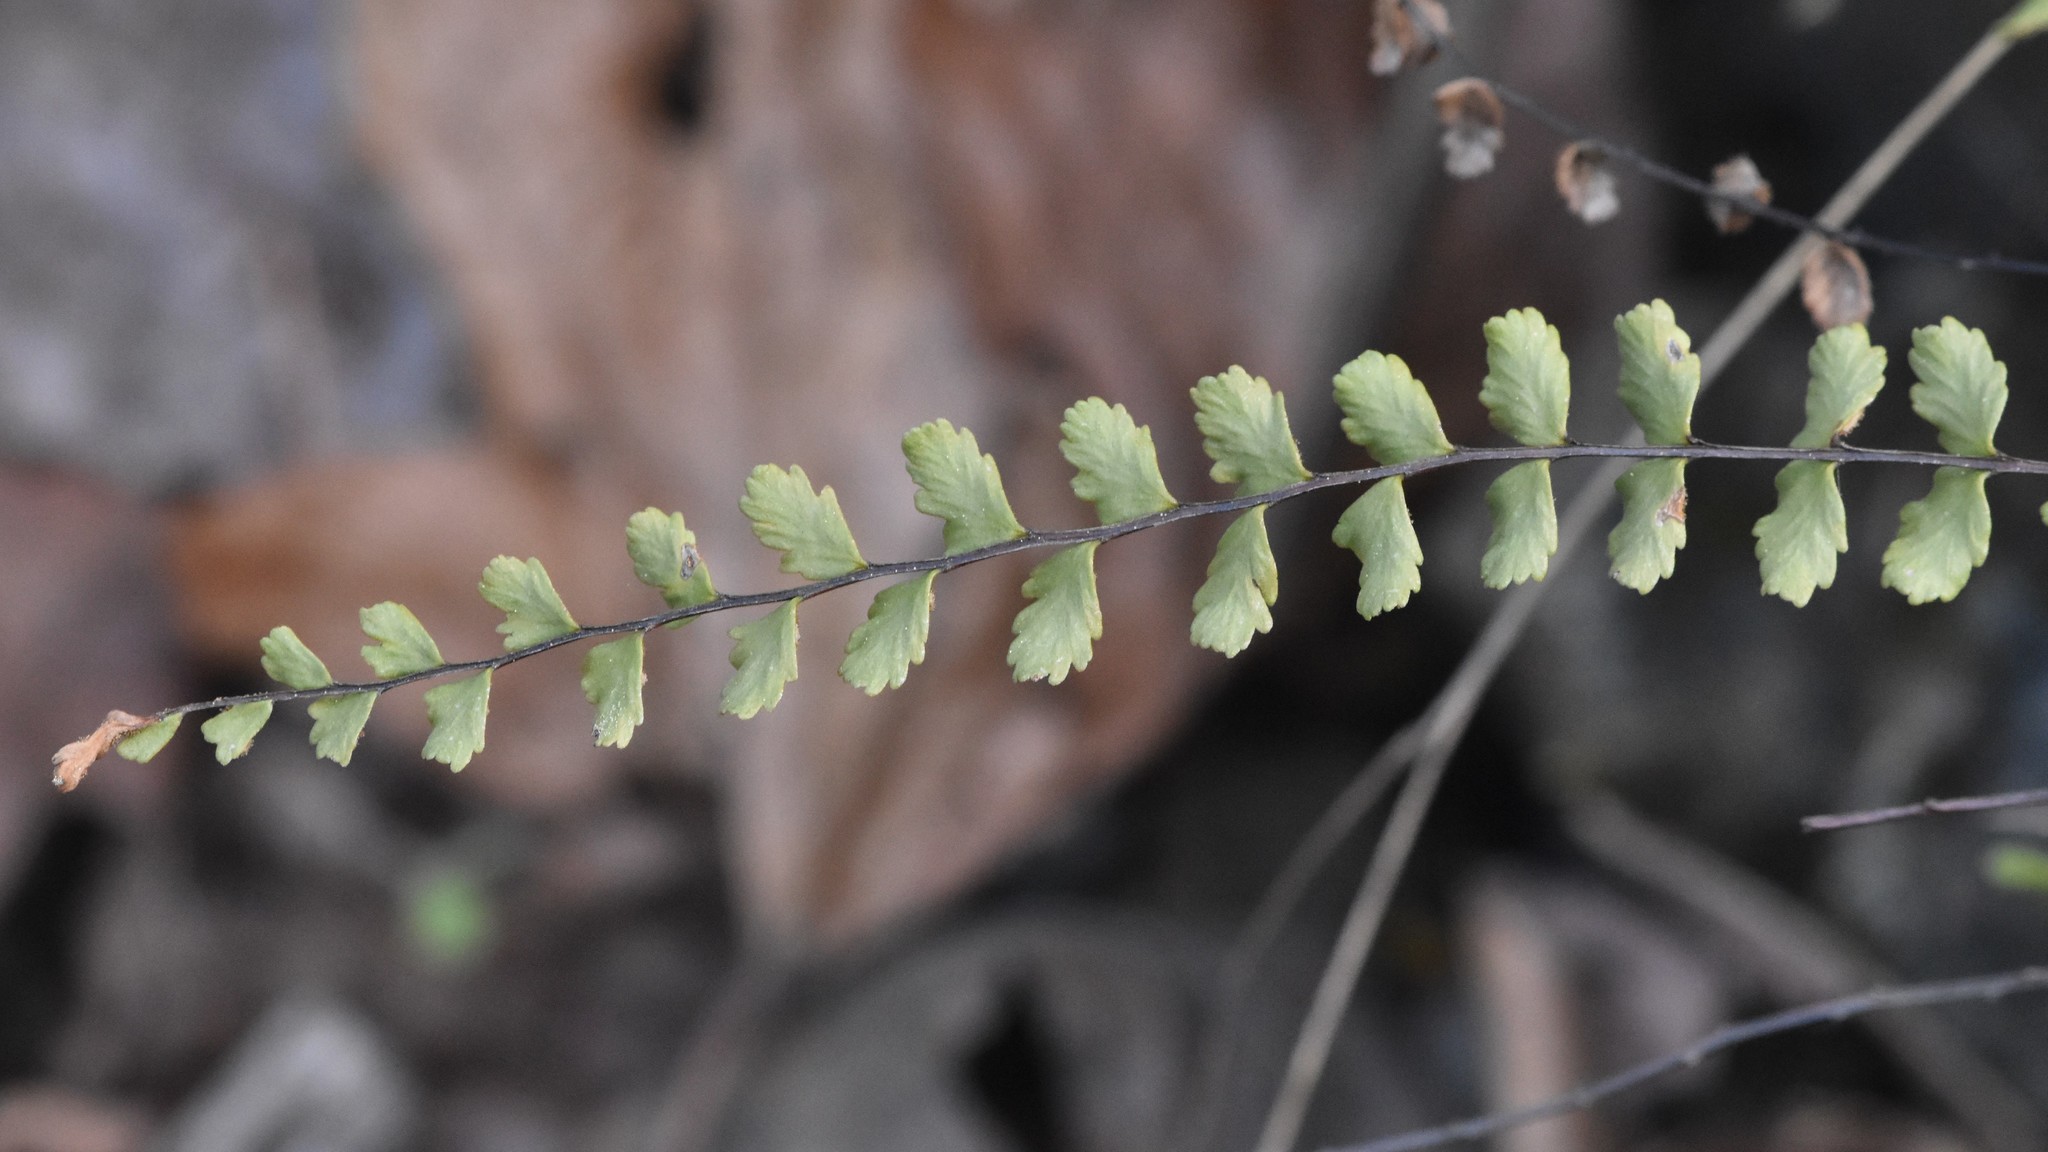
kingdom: Plantae
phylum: Tracheophyta
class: Polypodiopsida
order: Polypodiales
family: Aspleniaceae
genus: Asplenium
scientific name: Asplenium trichomanes
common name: Maidenhair spleenwort
